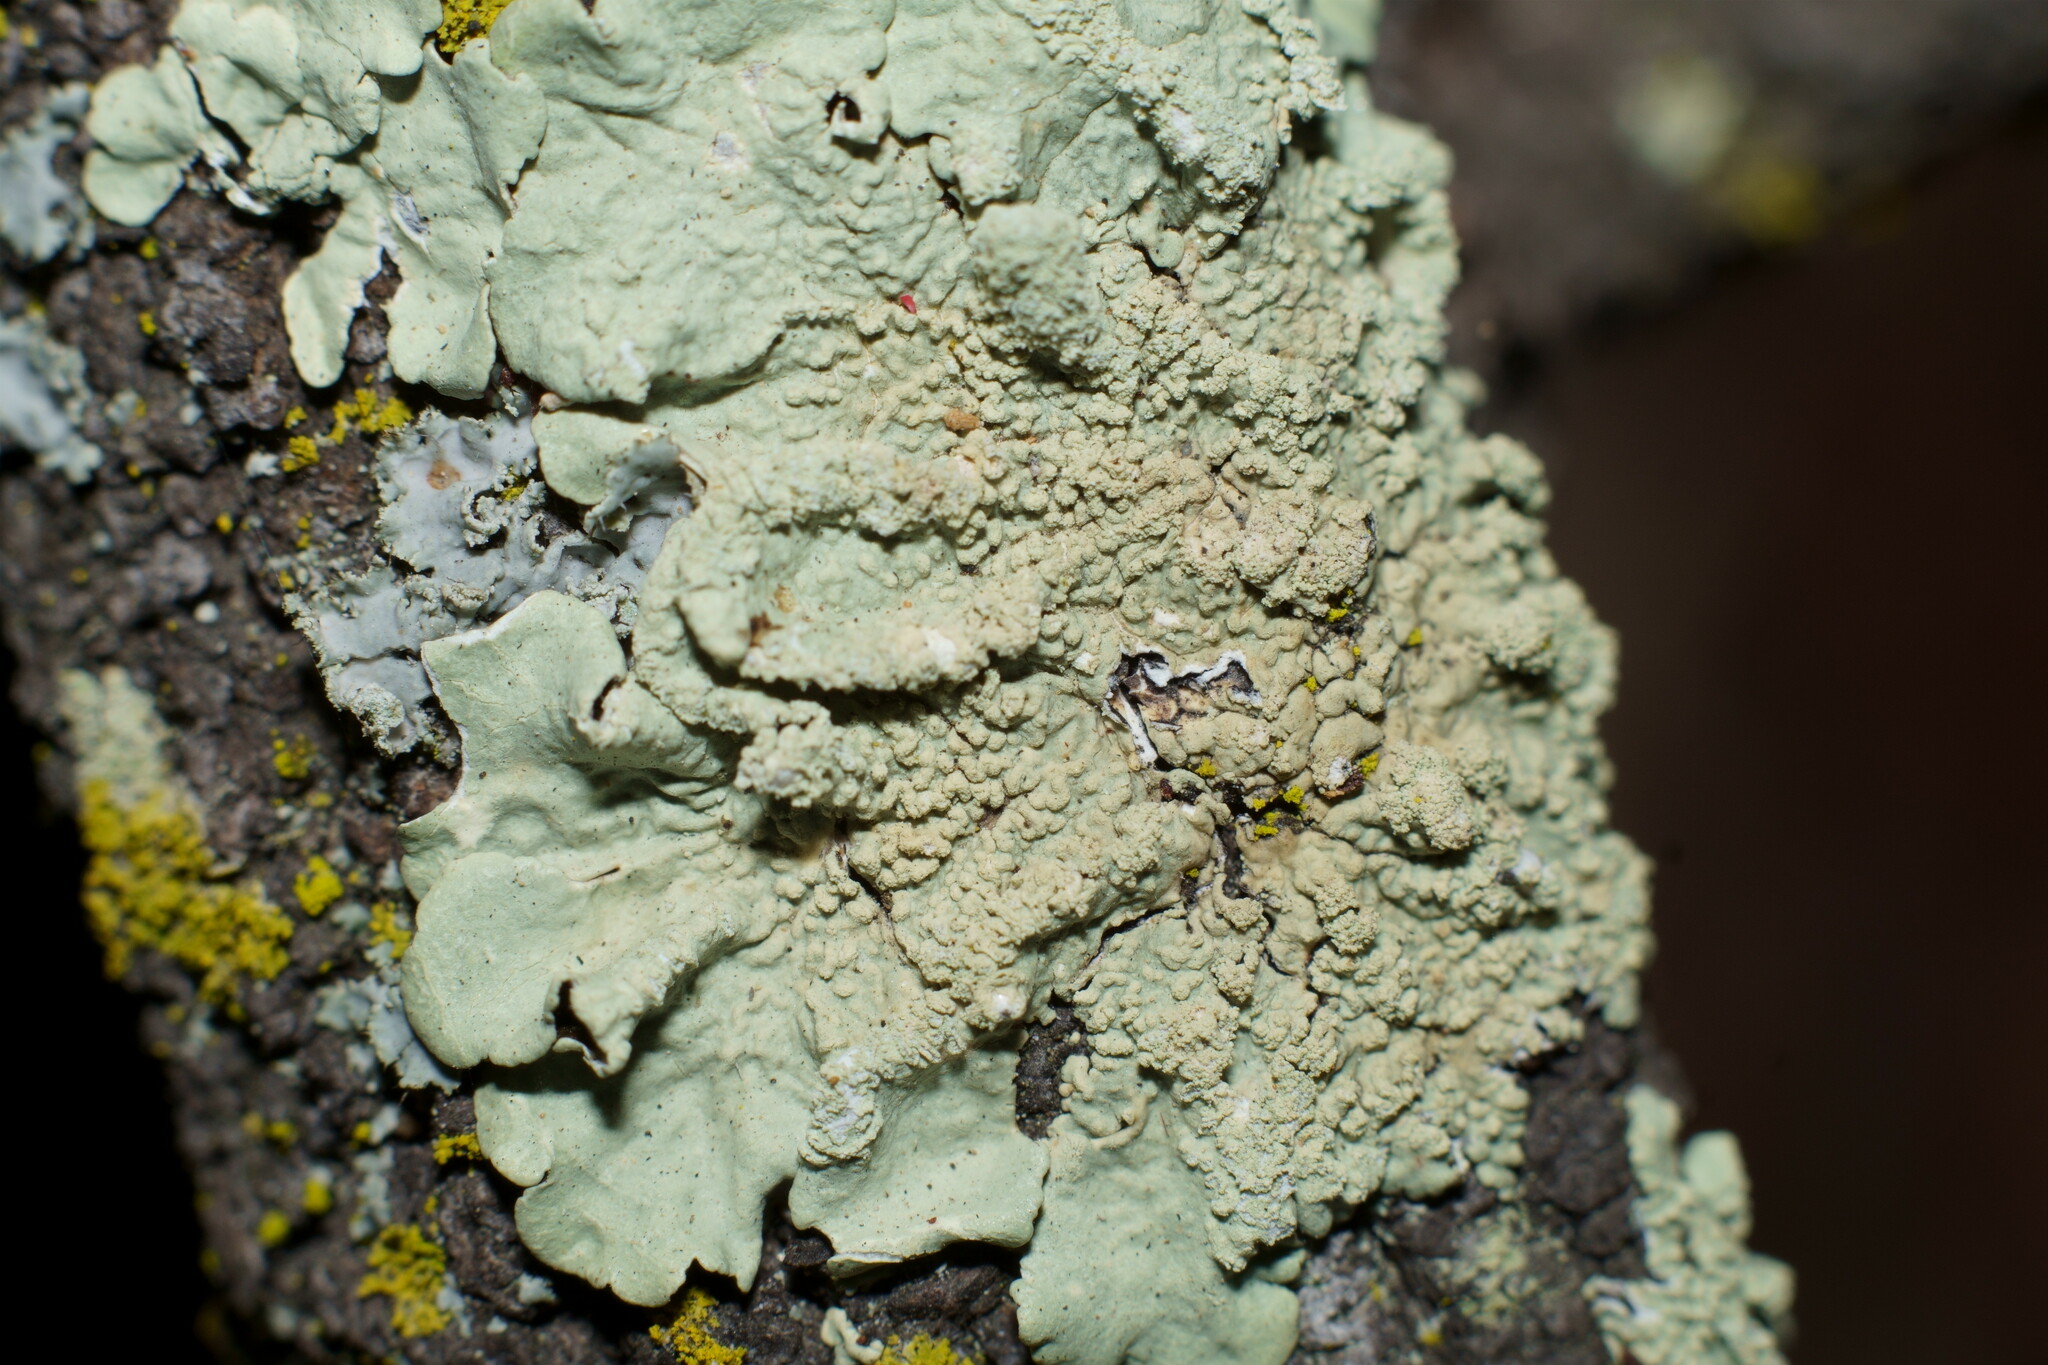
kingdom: Fungi
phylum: Ascomycota
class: Lecanoromycetes
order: Lecanorales
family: Parmeliaceae
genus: Flavoparmelia
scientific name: Flavoparmelia caperata
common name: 40-mile per hour lichen
